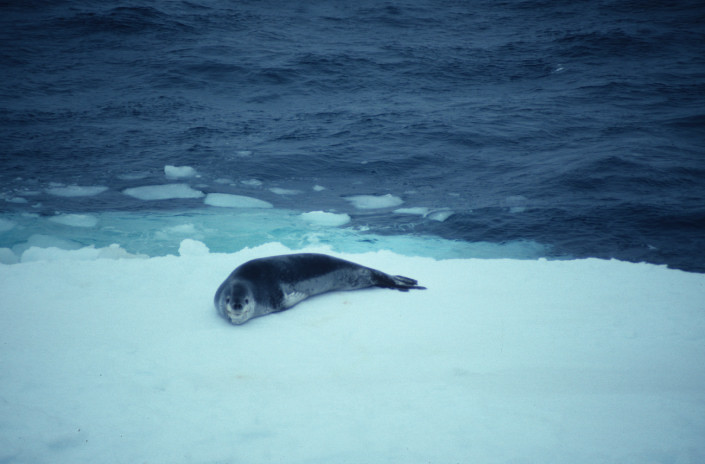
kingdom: Animalia
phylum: Chordata
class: Mammalia
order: Carnivora
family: Phocidae
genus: Hydrurga
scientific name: Hydrurga leptonyx
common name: Leopard seal
